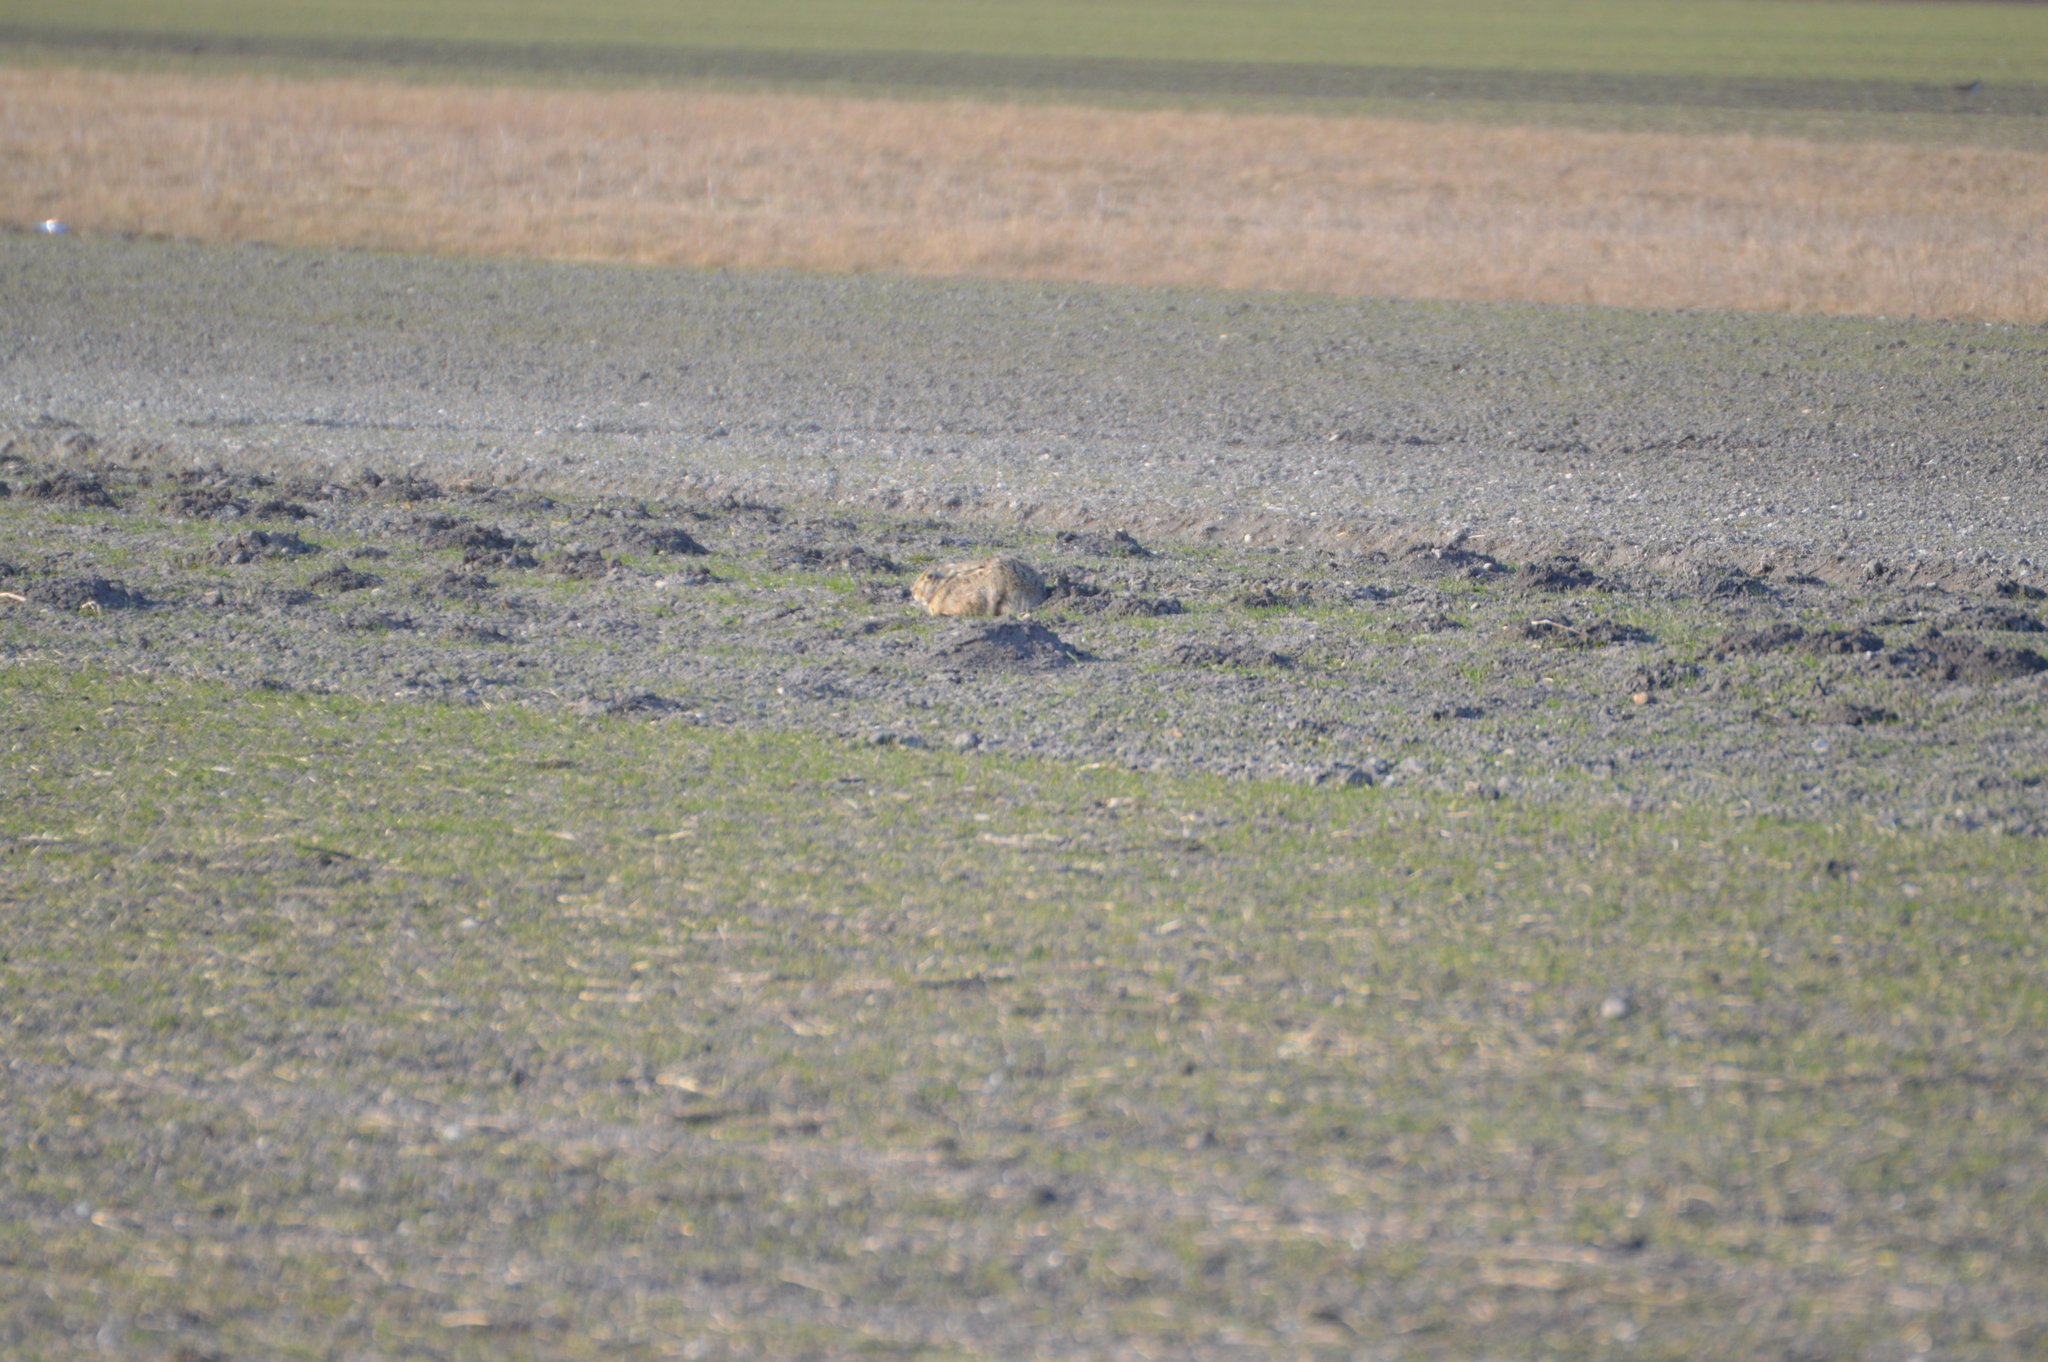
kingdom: Animalia
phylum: Chordata
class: Mammalia
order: Lagomorpha
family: Leporidae
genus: Lepus
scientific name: Lepus europaeus
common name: European hare
